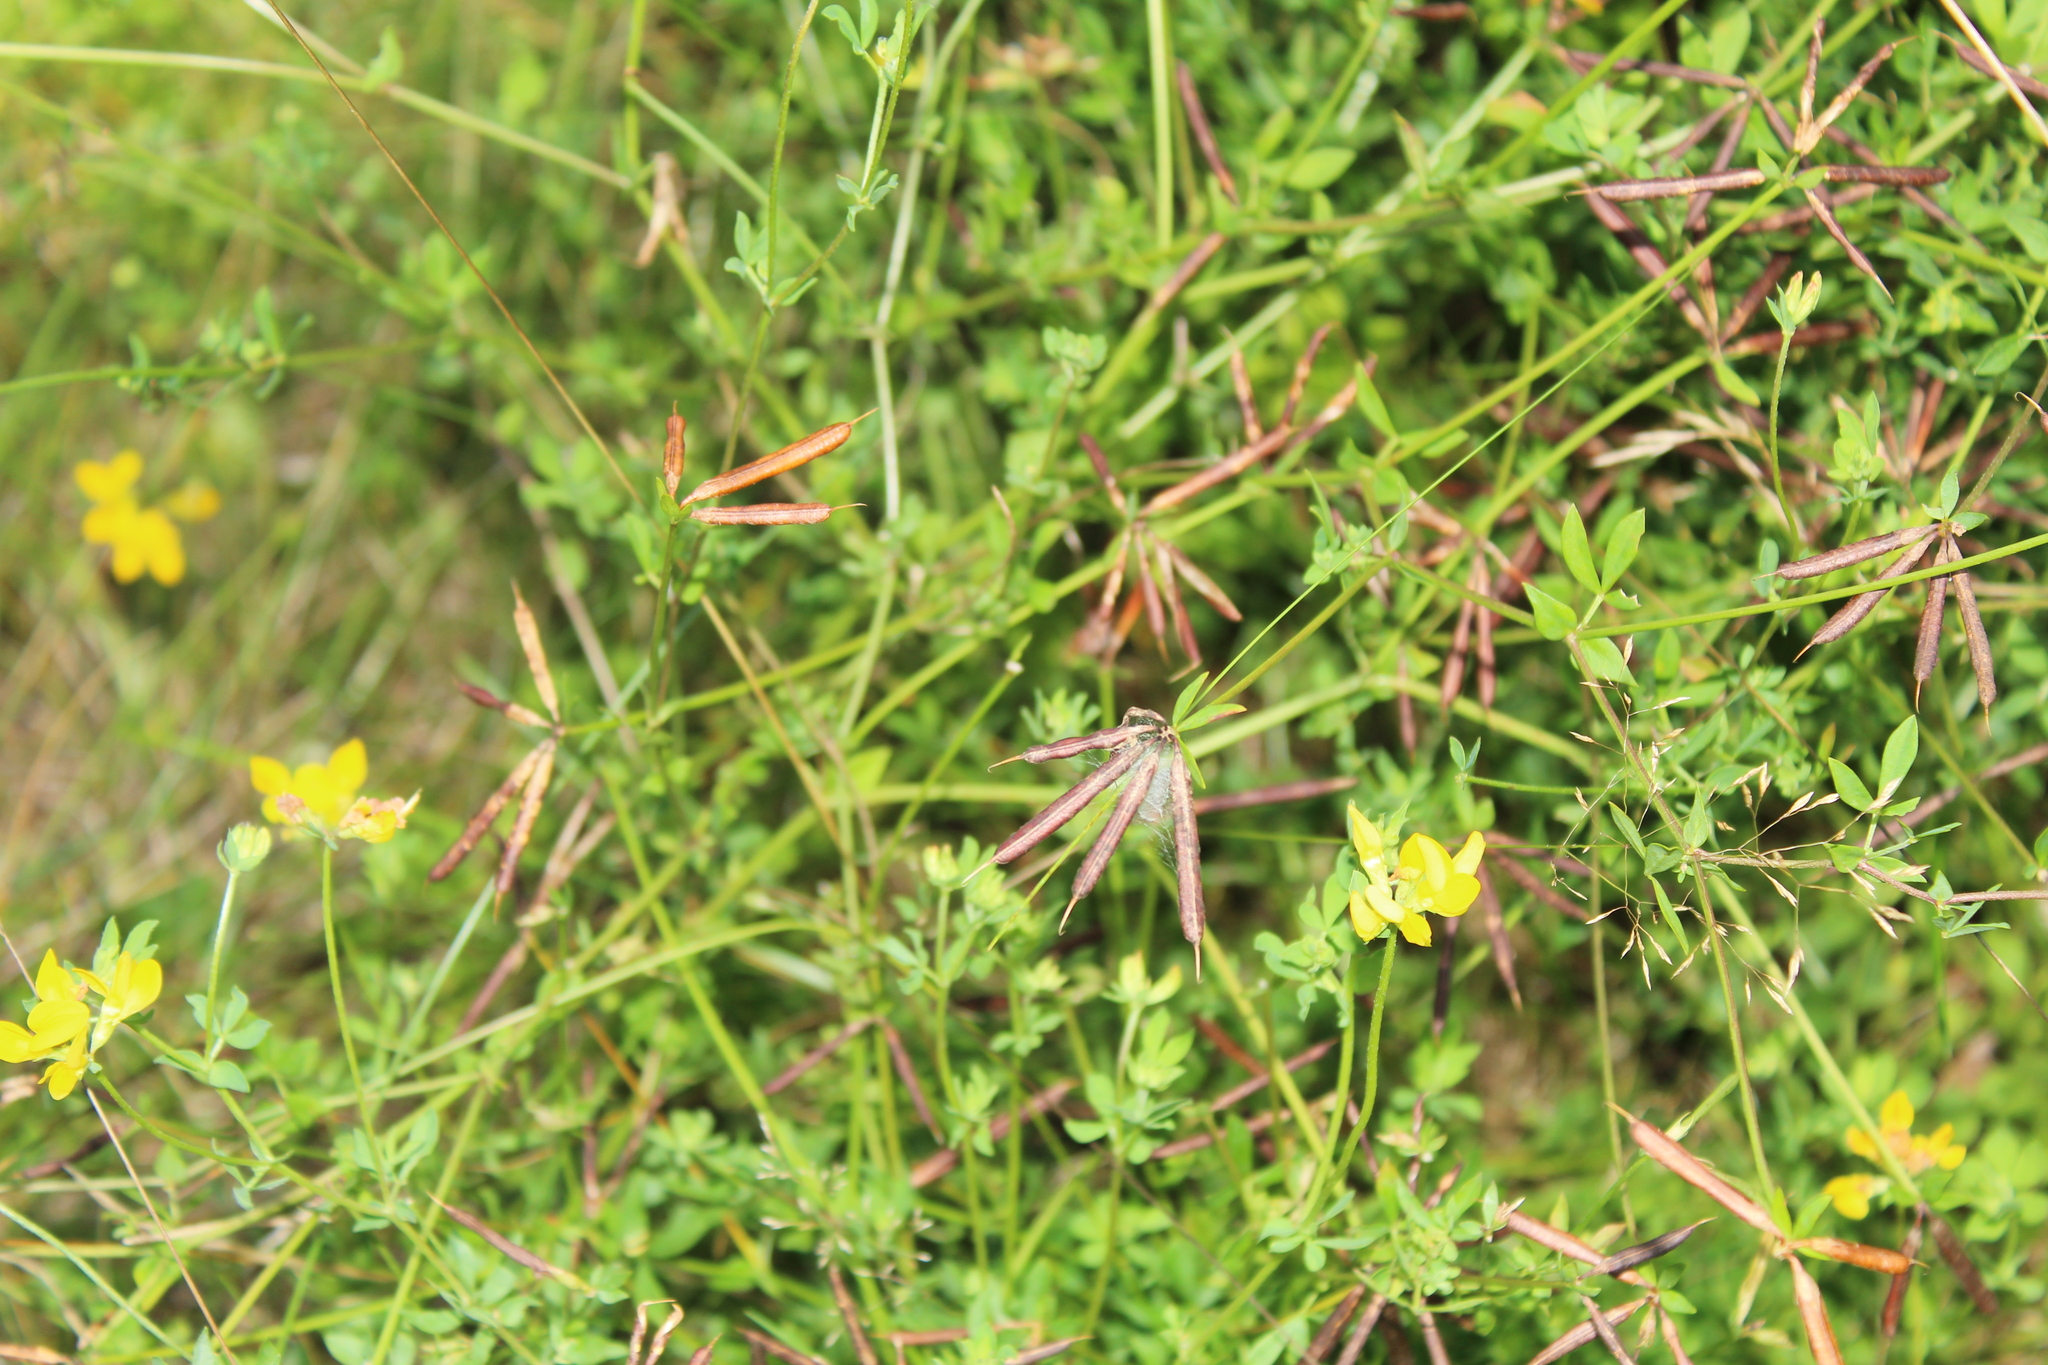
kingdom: Plantae
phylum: Tracheophyta
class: Magnoliopsida
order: Fabales
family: Fabaceae
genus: Lotus
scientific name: Lotus corniculatus
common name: Common bird's-foot-trefoil
